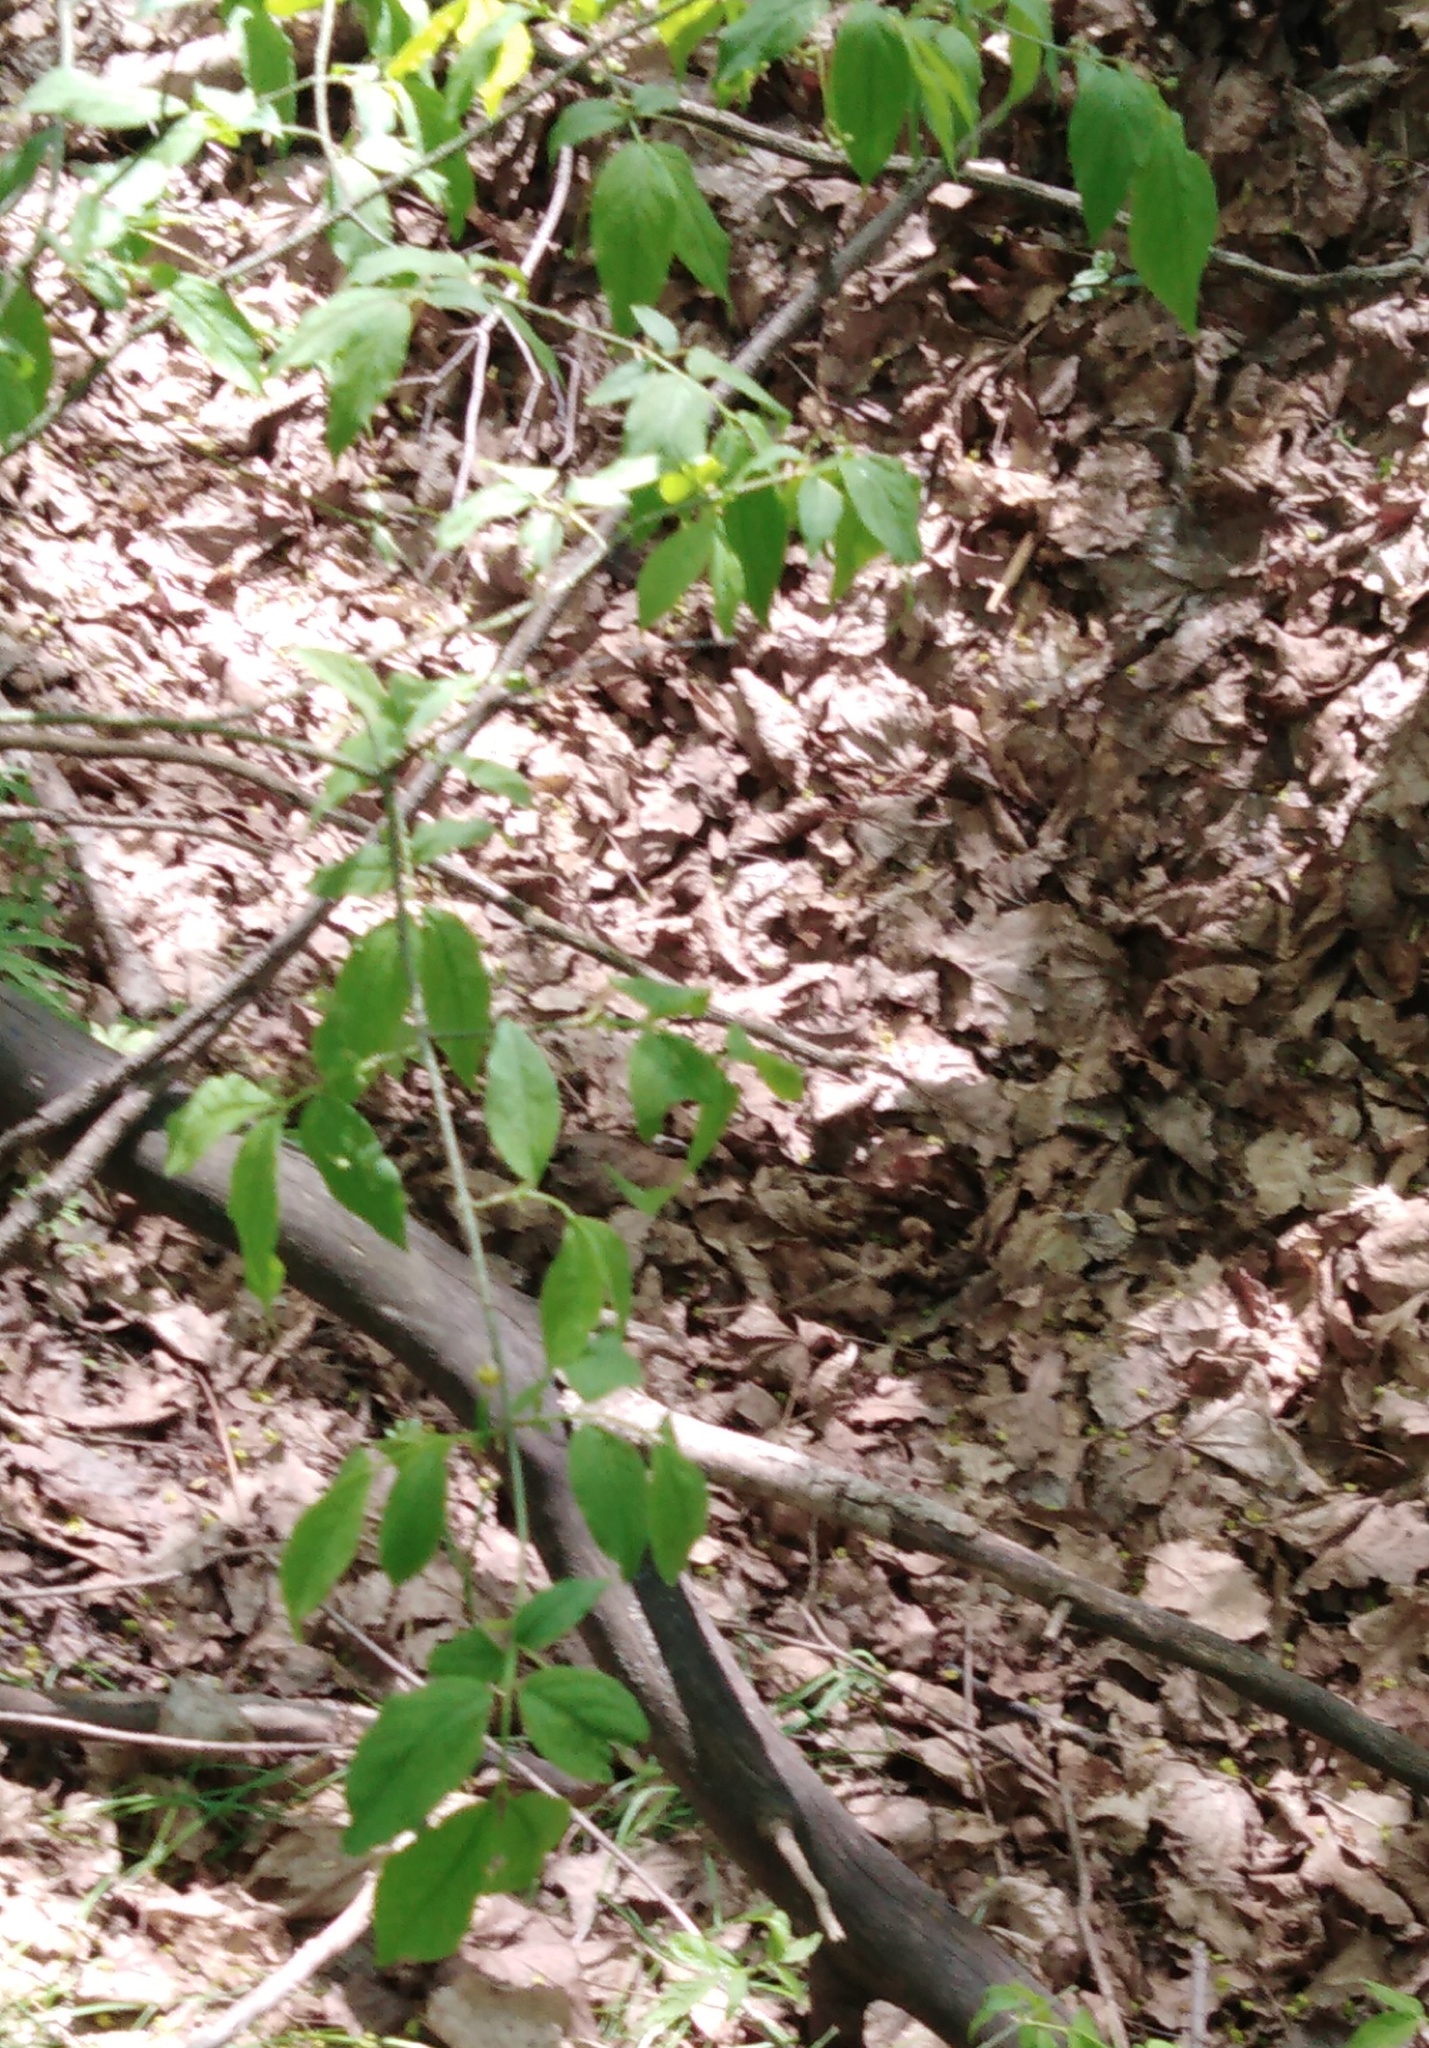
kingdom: Plantae
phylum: Tracheophyta
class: Magnoliopsida
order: Celastrales
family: Celastraceae
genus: Euonymus
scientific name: Euonymus verrucosus
